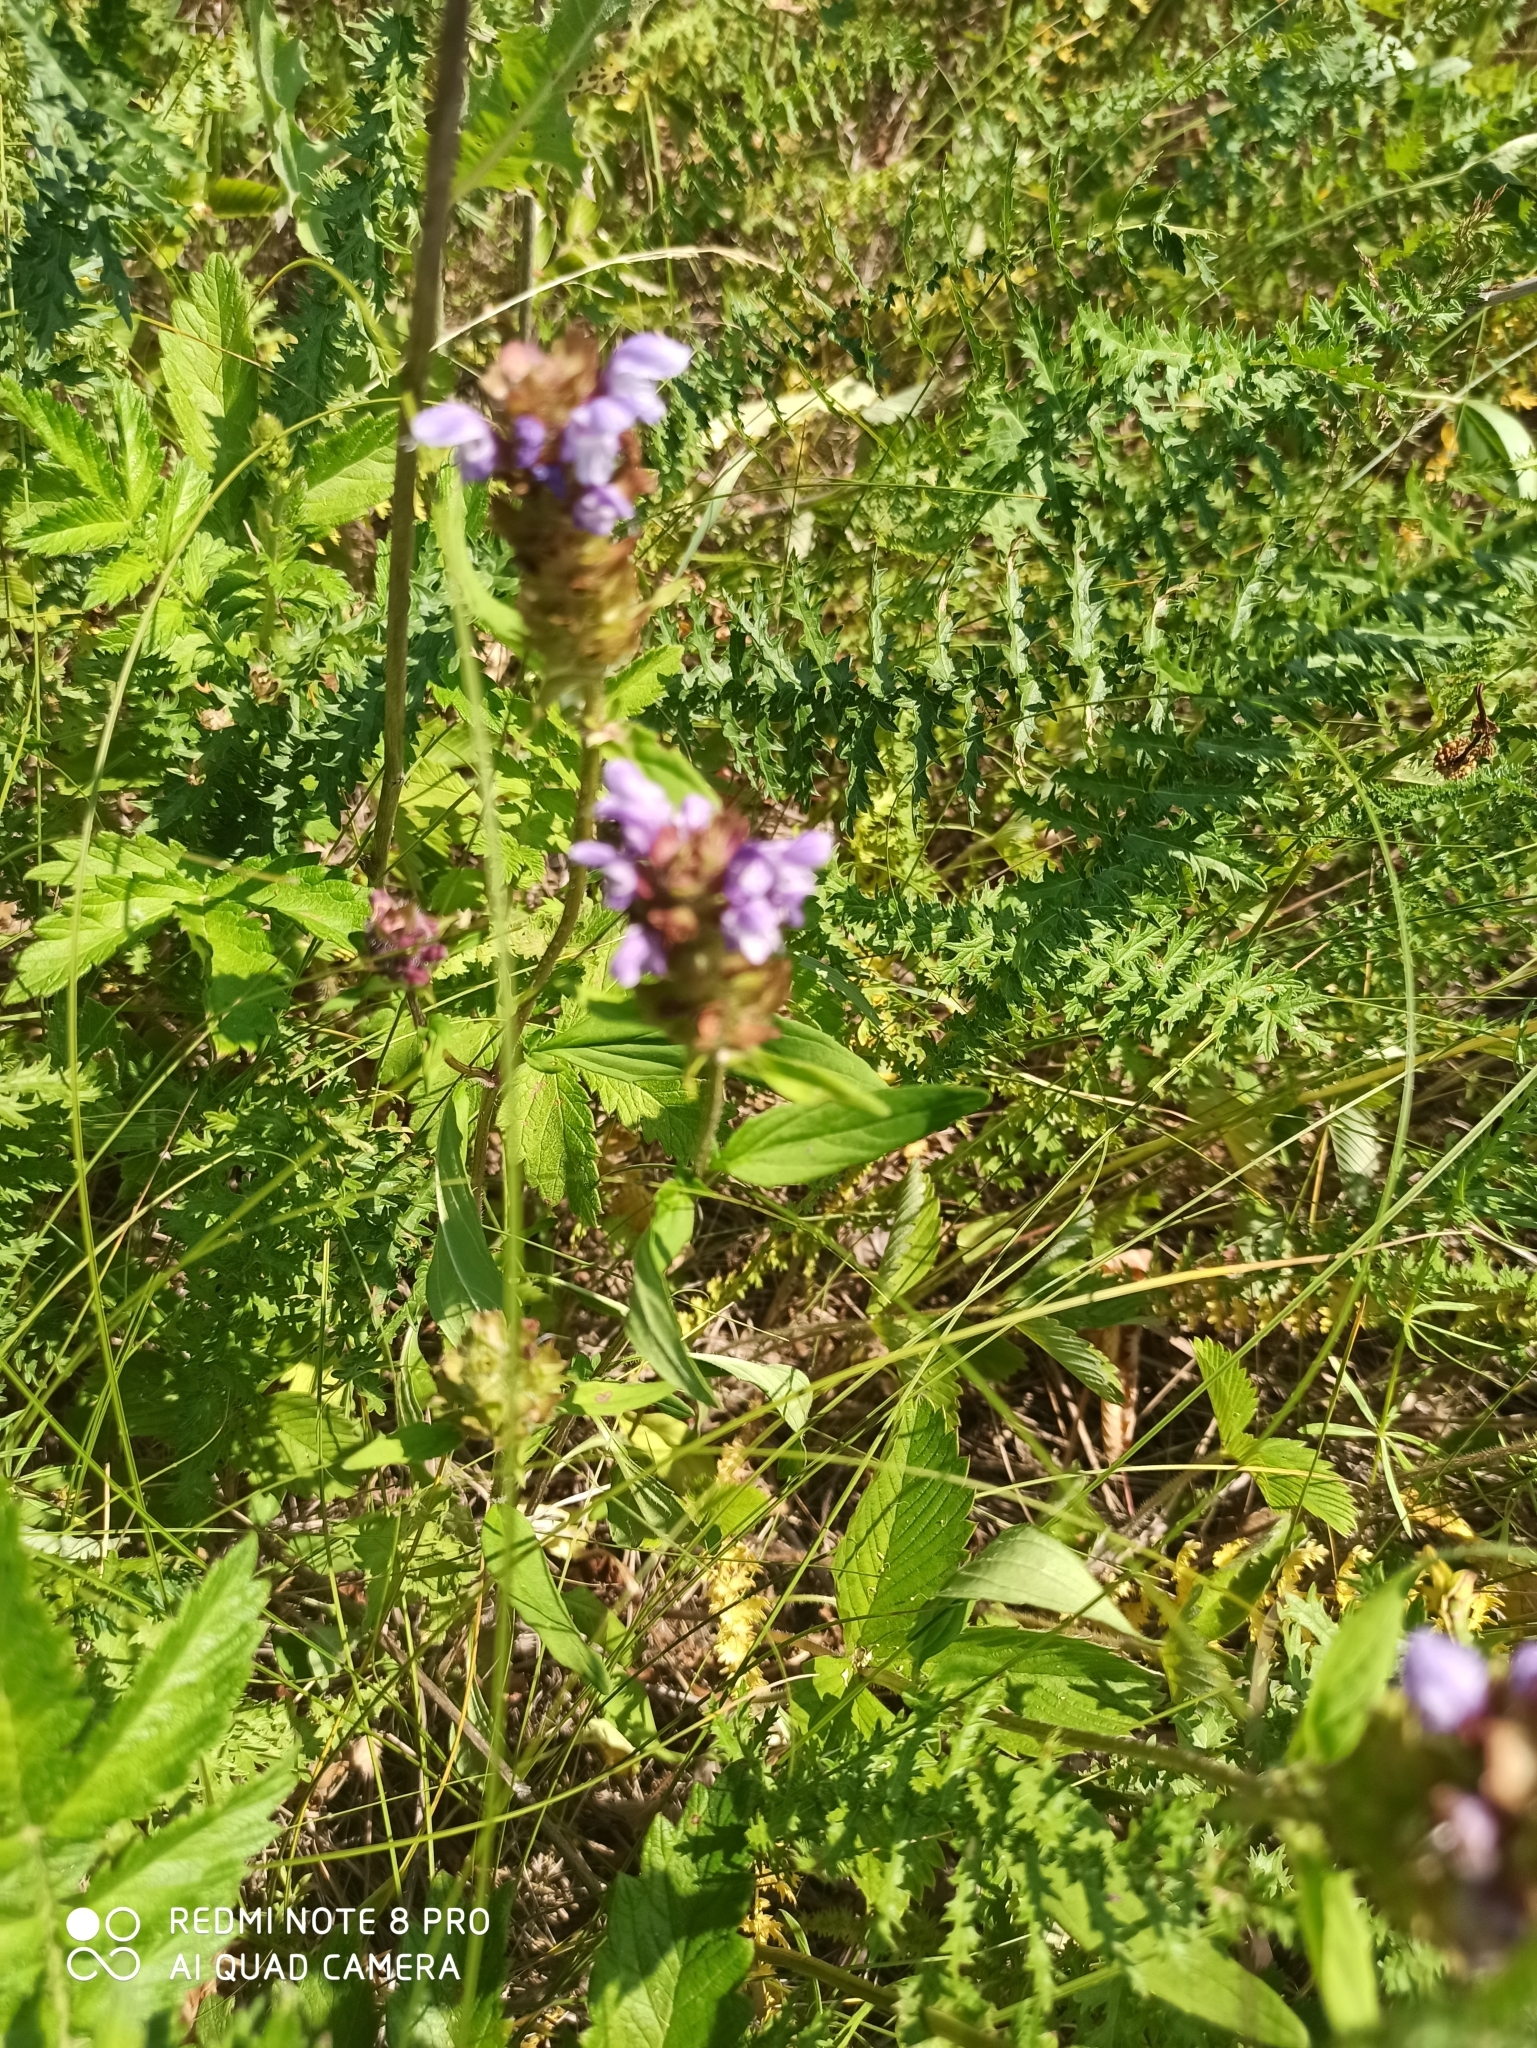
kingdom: Plantae
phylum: Tracheophyta
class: Magnoliopsida
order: Lamiales
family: Lamiaceae
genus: Prunella
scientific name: Prunella vulgaris
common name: Heal-all
